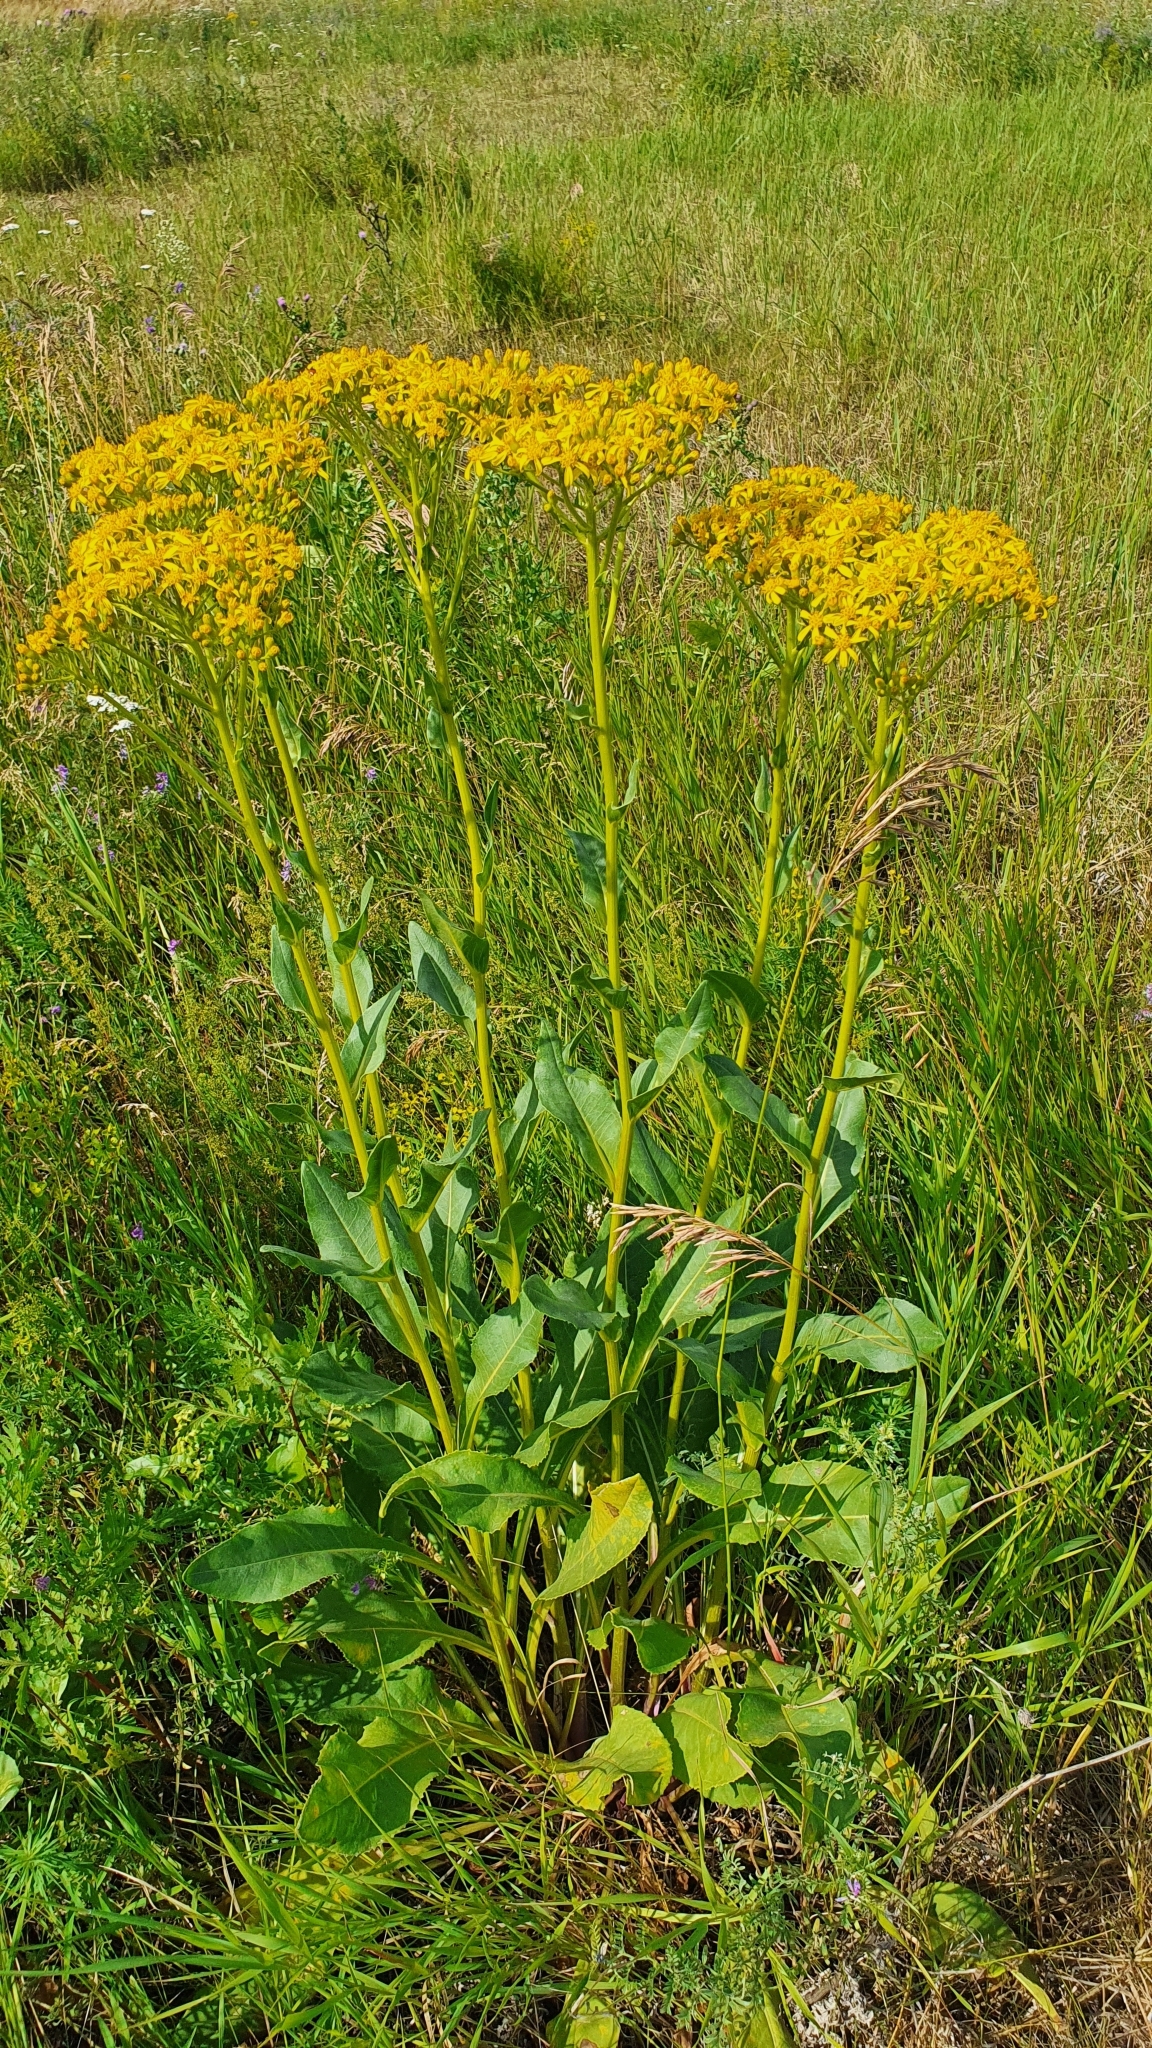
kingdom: Plantae
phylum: Tracheophyta
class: Magnoliopsida
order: Asterales
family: Asteraceae
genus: Senecio
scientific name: Senecio doria
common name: Golden ragwort
